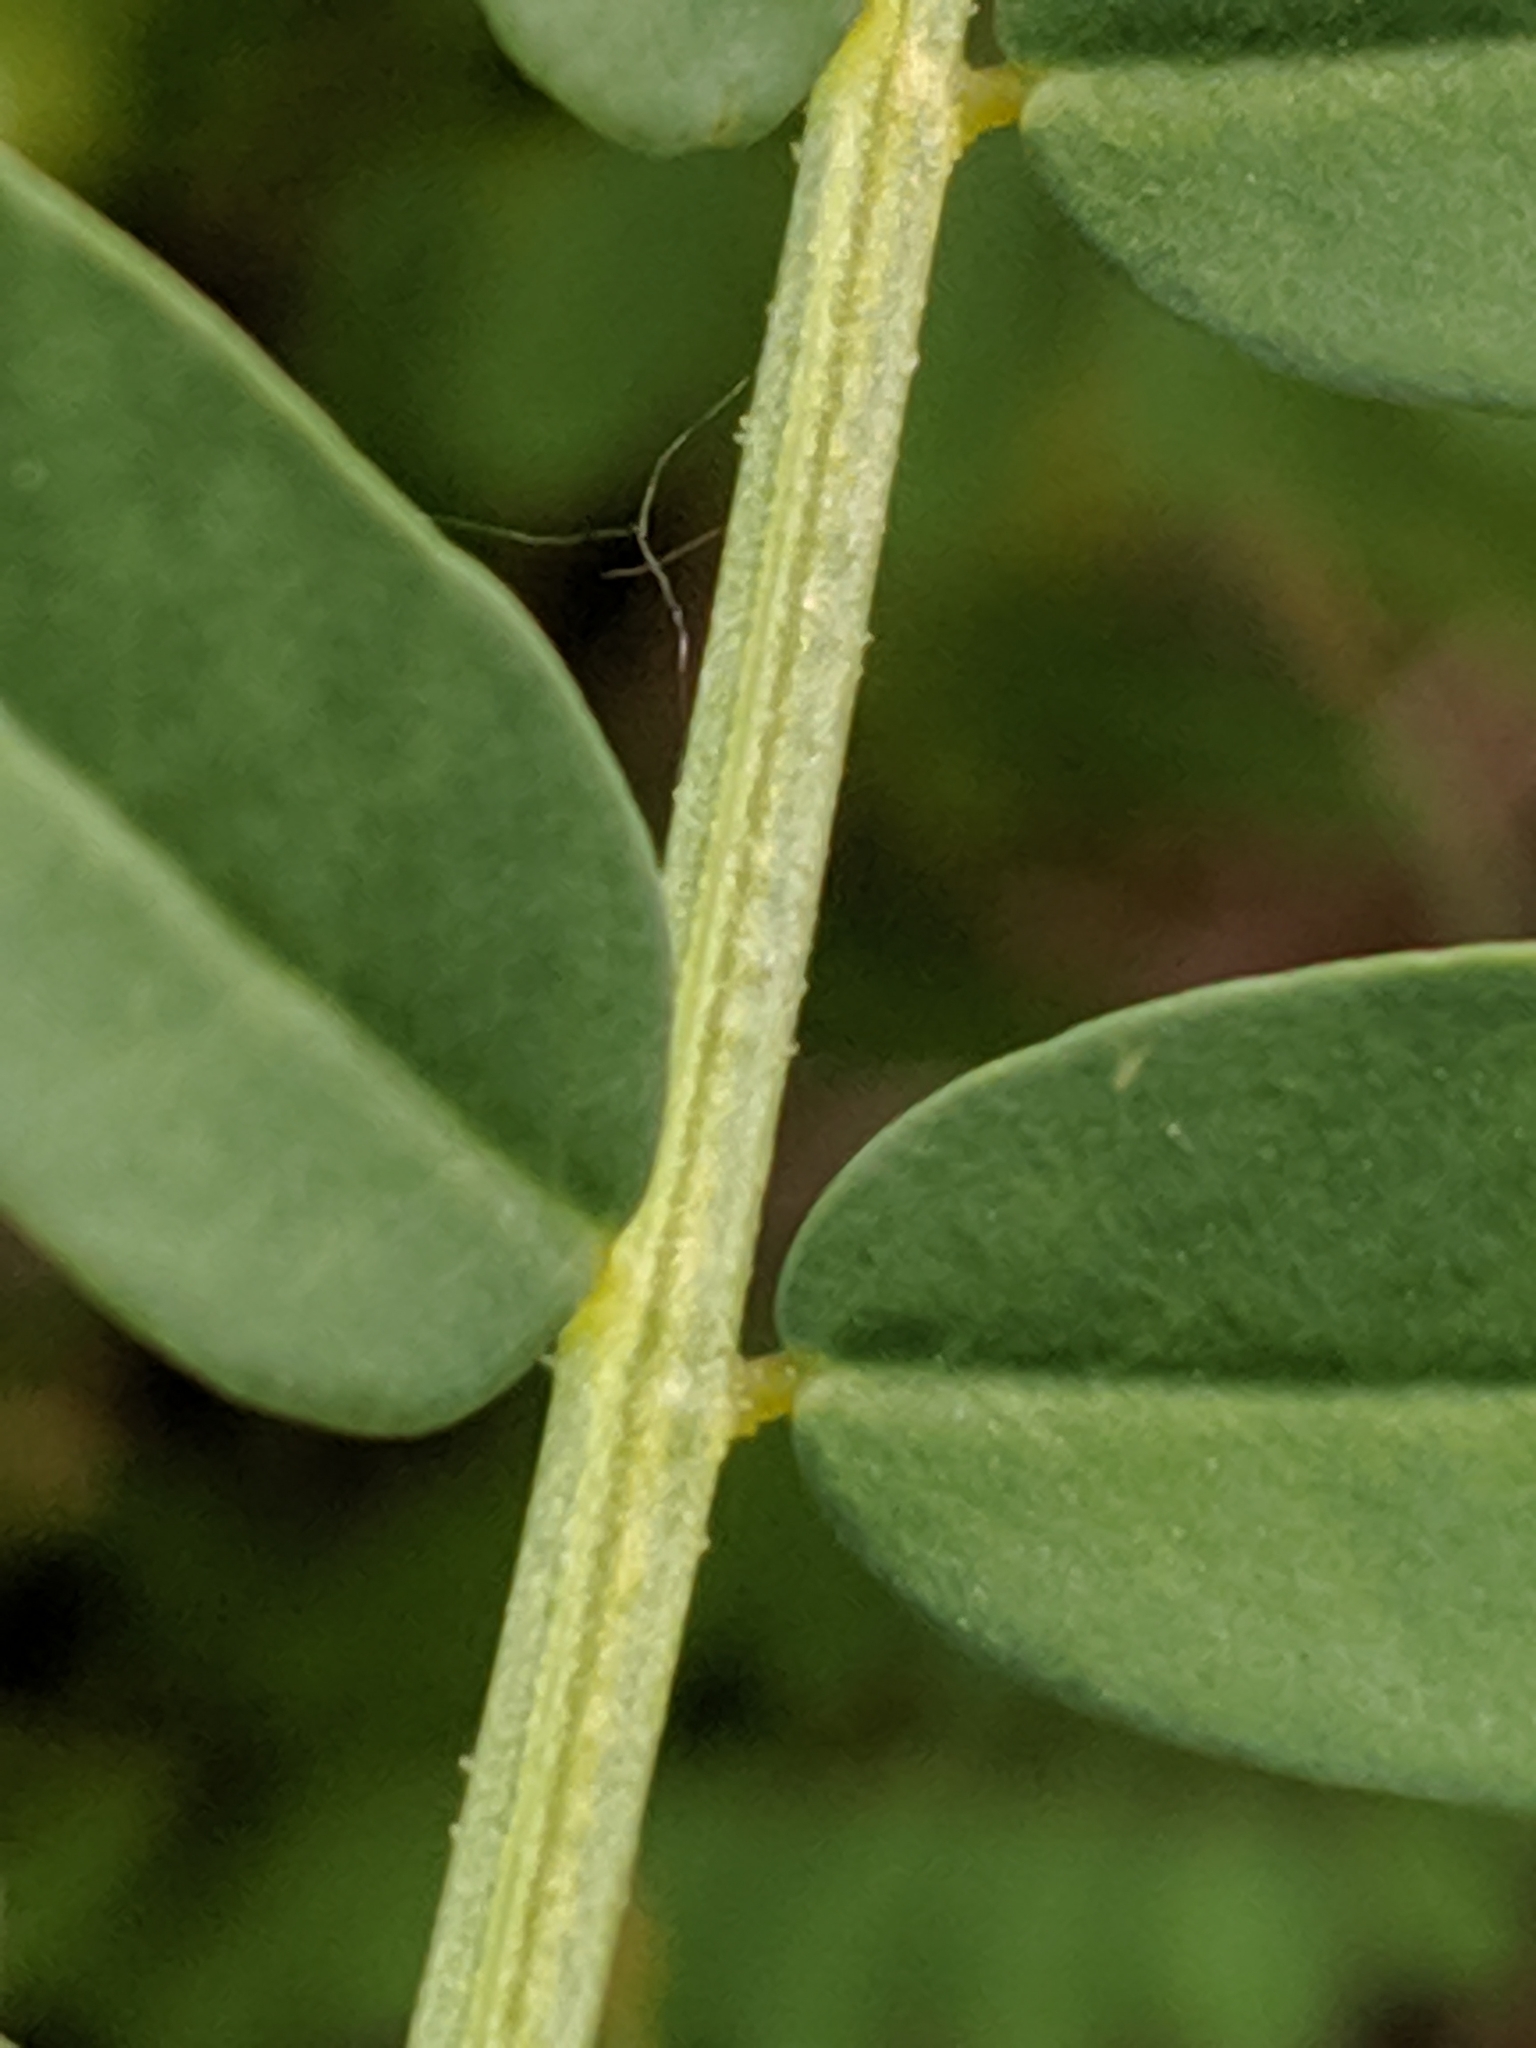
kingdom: Plantae
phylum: Tracheophyta
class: Magnoliopsida
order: Fabales
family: Fabaceae
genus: Coronilla
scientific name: Coronilla varia
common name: Crownvetch
